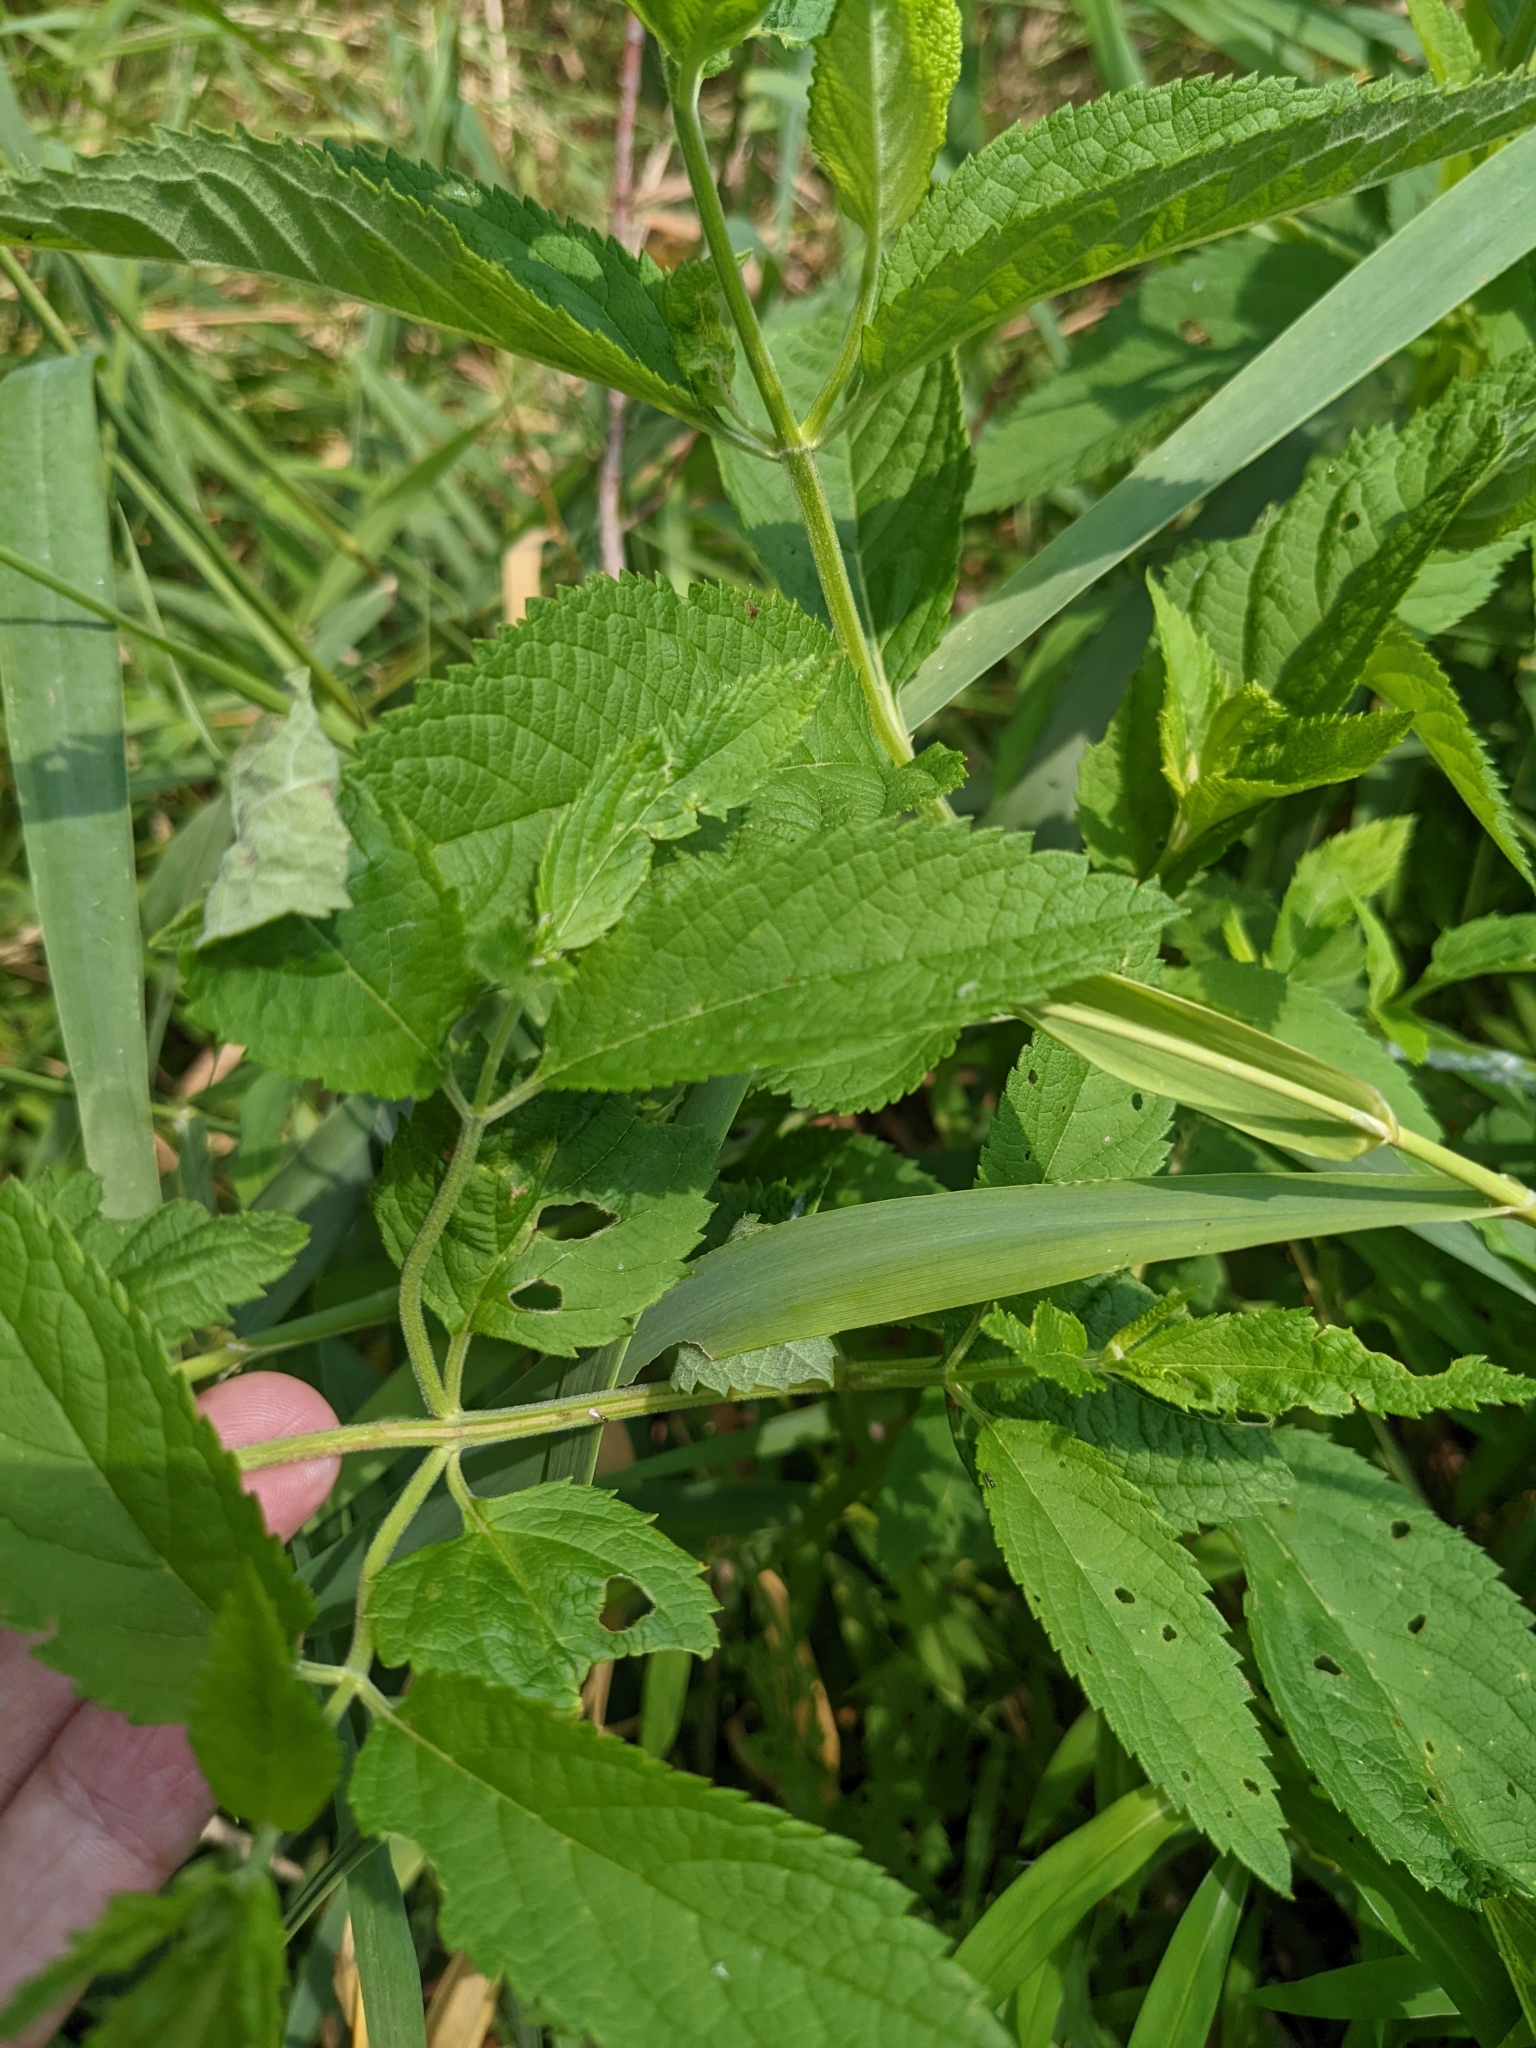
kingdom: Plantae
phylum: Tracheophyta
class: Magnoliopsida
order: Lamiales
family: Lamiaceae
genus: Teucrium
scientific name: Teucrium canadense
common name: American germander
